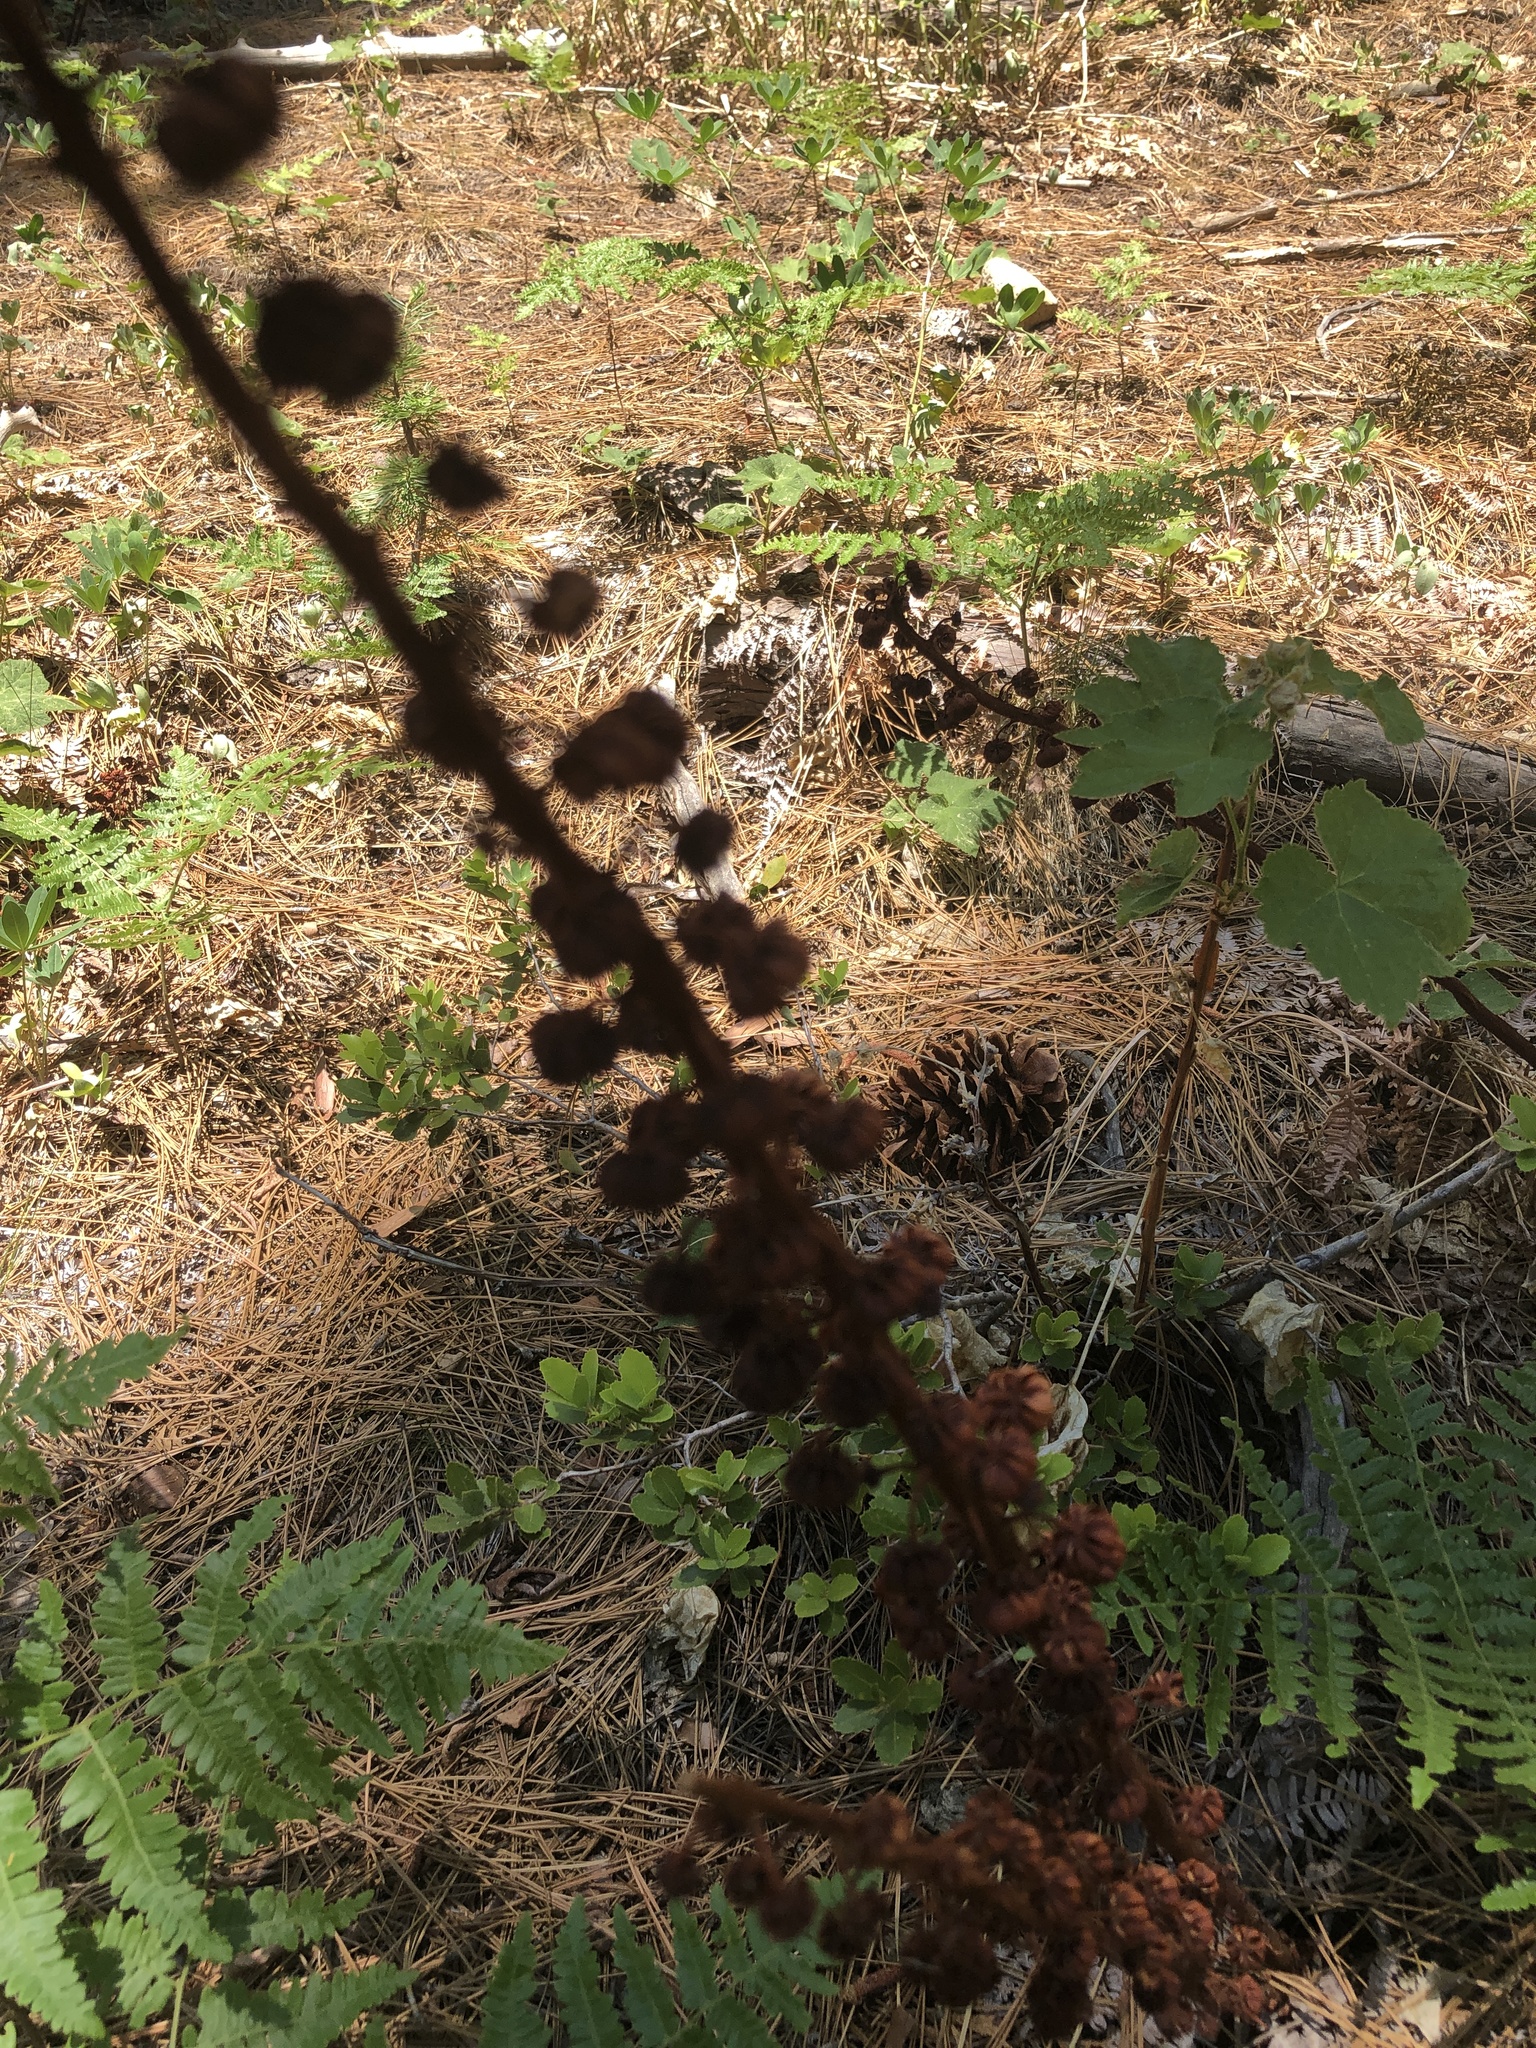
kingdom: Plantae
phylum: Tracheophyta
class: Magnoliopsida
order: Ericales
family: Ericaceae
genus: Pterospora
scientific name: Pterospora andromedea
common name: Giant bird's-nest
